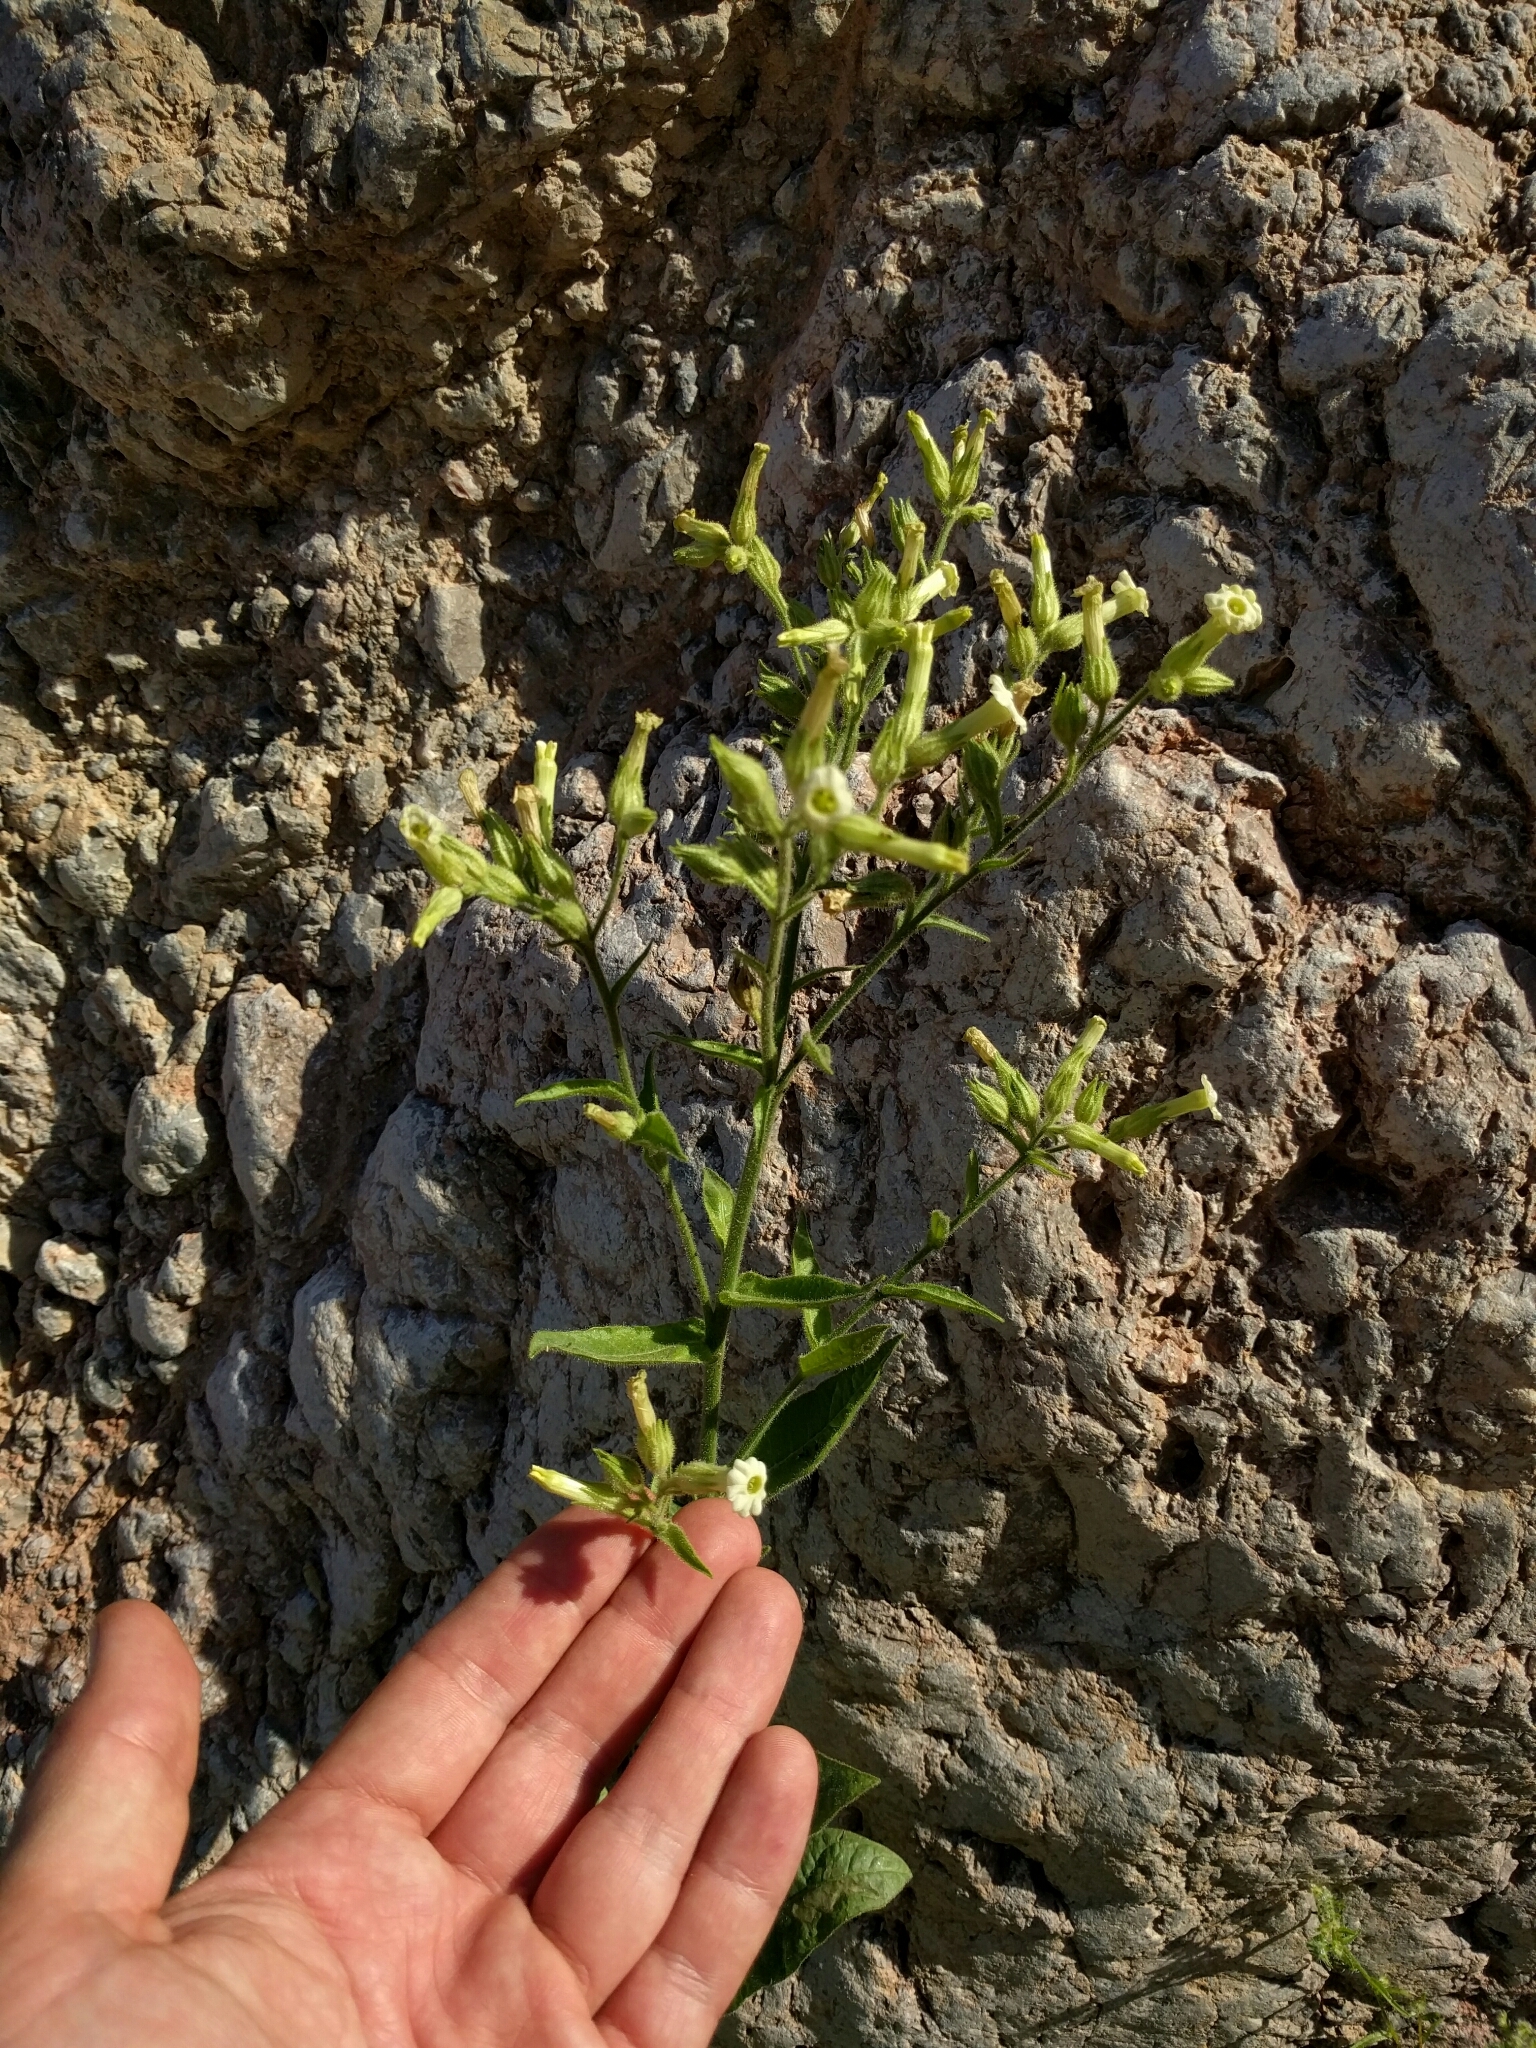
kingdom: Plantae
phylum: Tracheophyta
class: Magnoliopsida
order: Solanales
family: Solanaceae
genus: Nicotiana
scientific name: Nicotiana obtusifolia
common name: Desert tobacco
